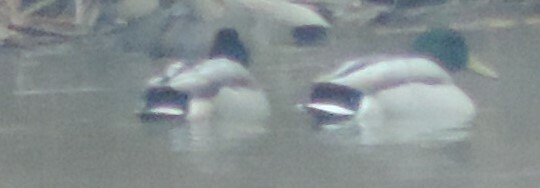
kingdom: Animalia
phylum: Chordata
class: Aves
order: Anseriformes
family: Anatidae
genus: Anas
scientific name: Anas platyrhynchos
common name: Mallard
